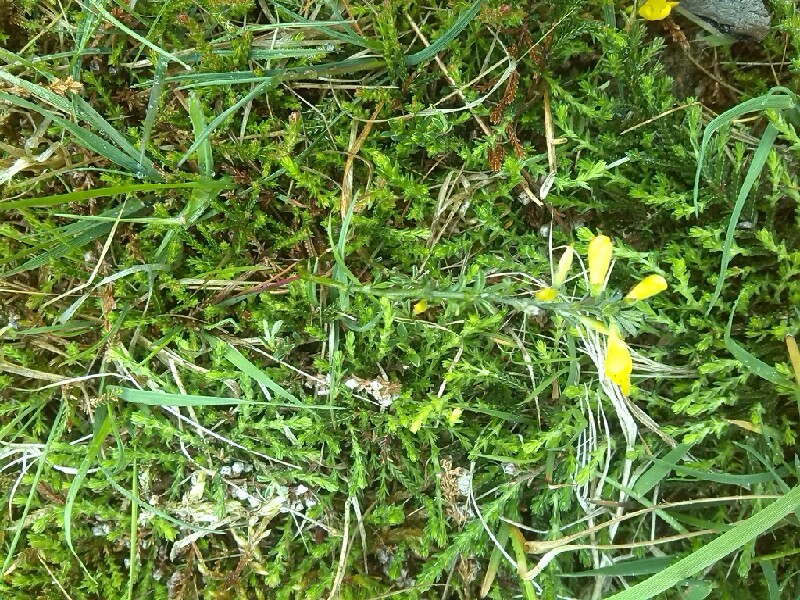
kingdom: Plantae
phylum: Tracheophyta
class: Magnoliopsida
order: Fabales
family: Fabaceae
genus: Genista
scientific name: Genista pilosa
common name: Hairy greenweed
